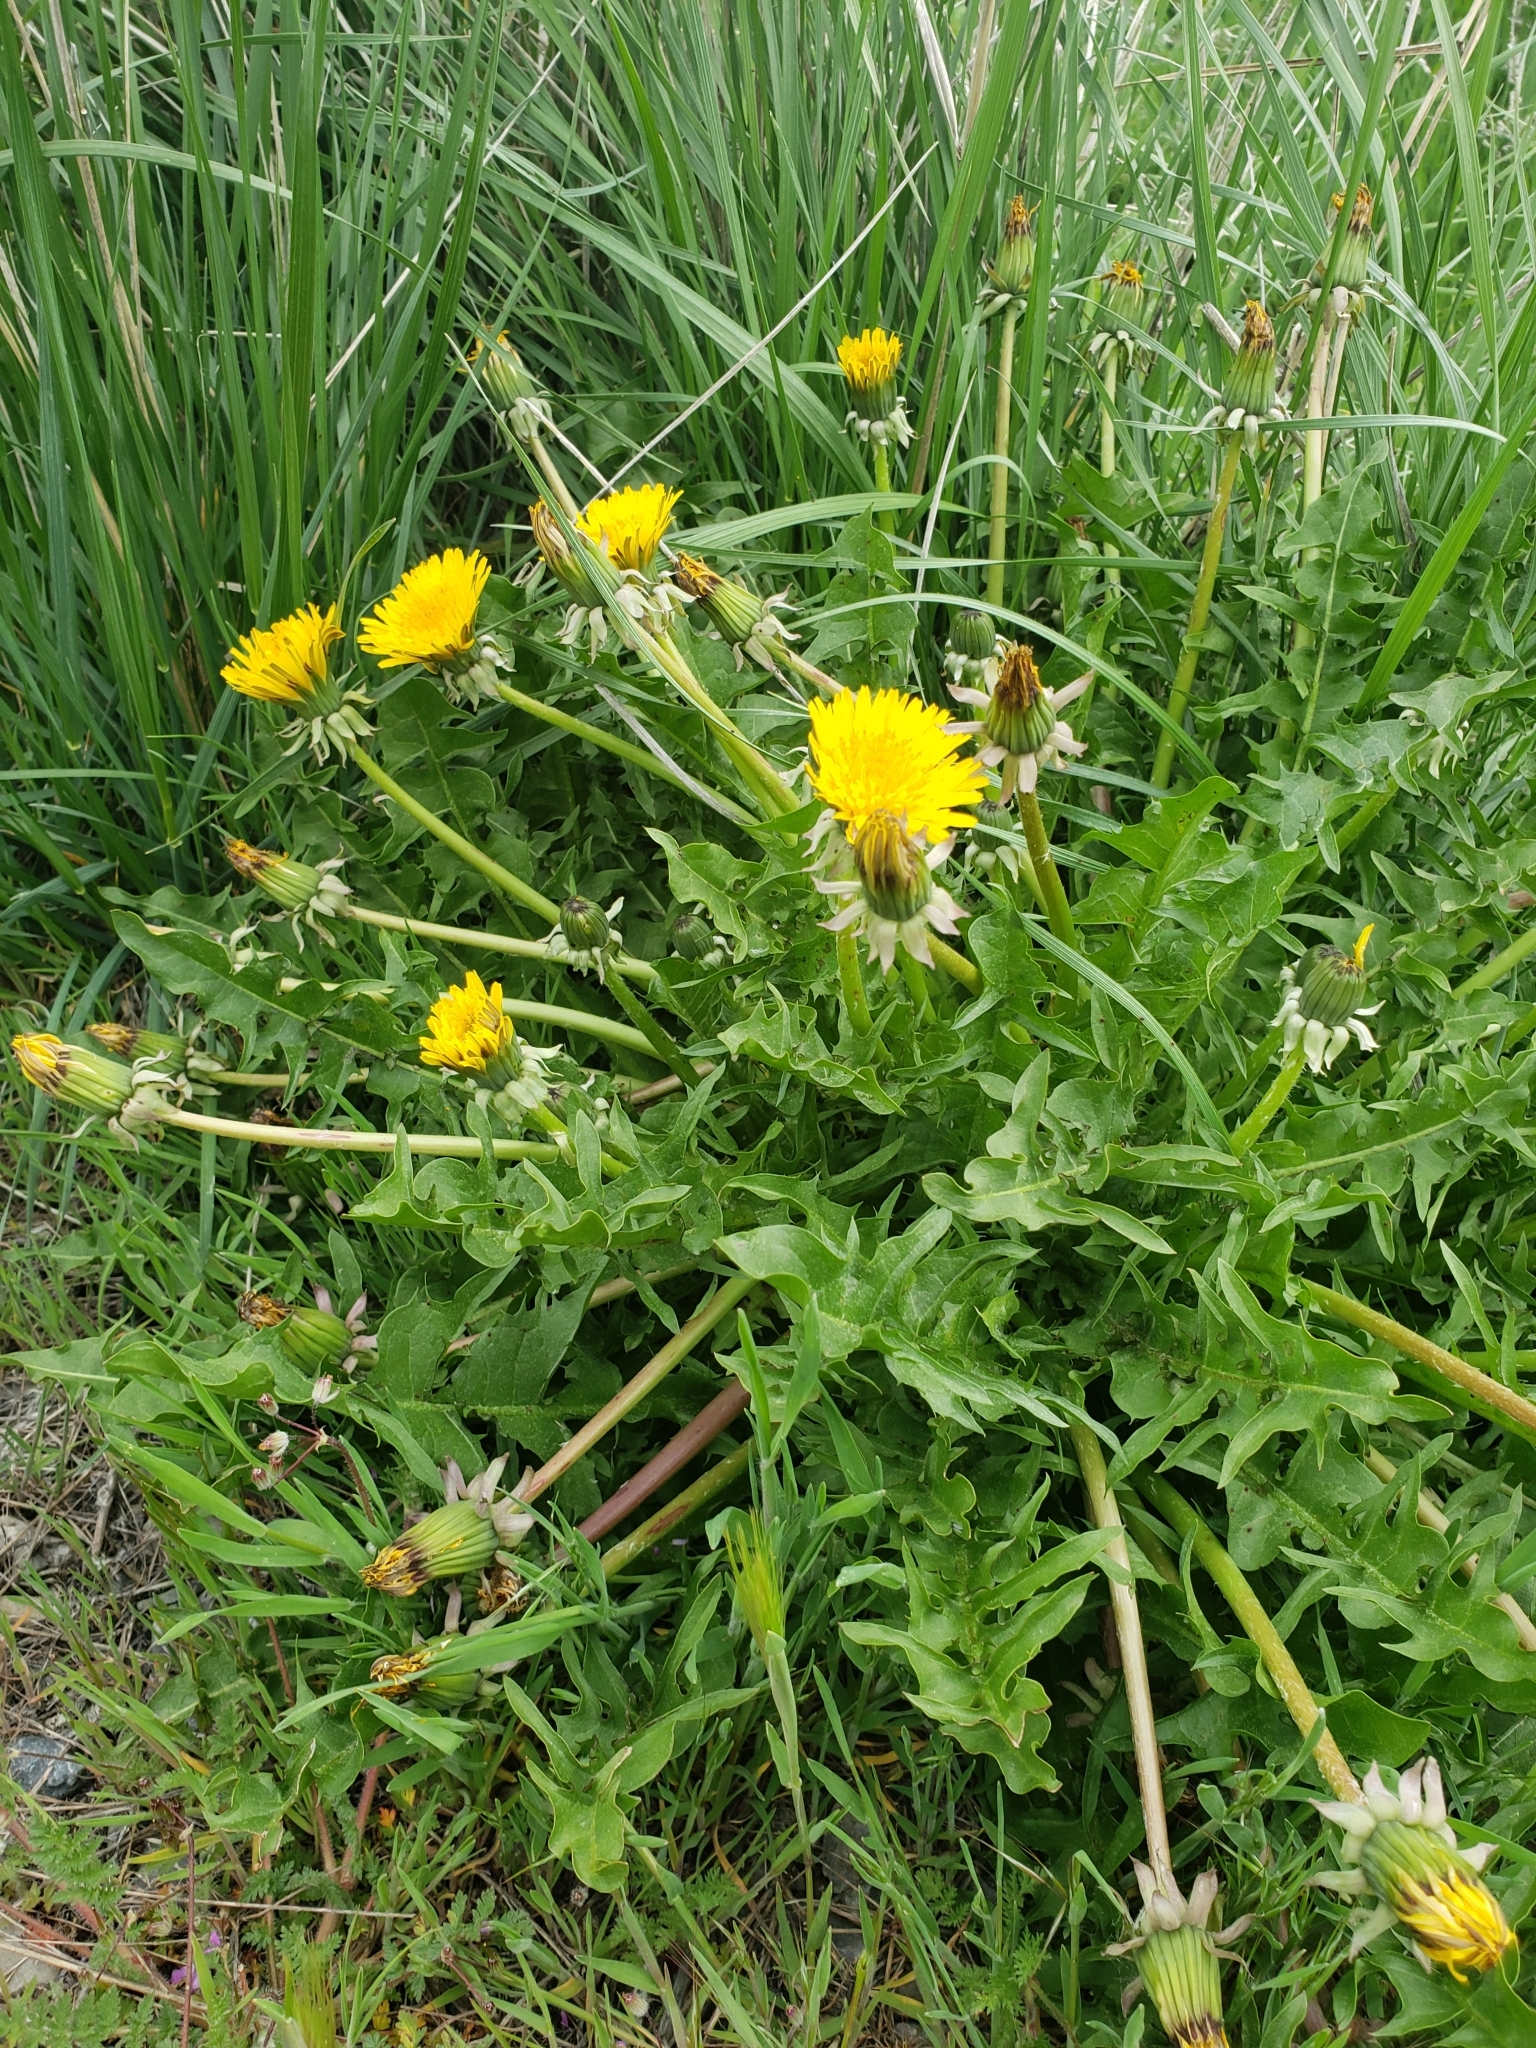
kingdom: Plantae
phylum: Tracheophyta
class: Magnoliopsida
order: Asterales
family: Asteraceae
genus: Taraxacum
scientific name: Taraxacum officinale
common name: Common dandelion
